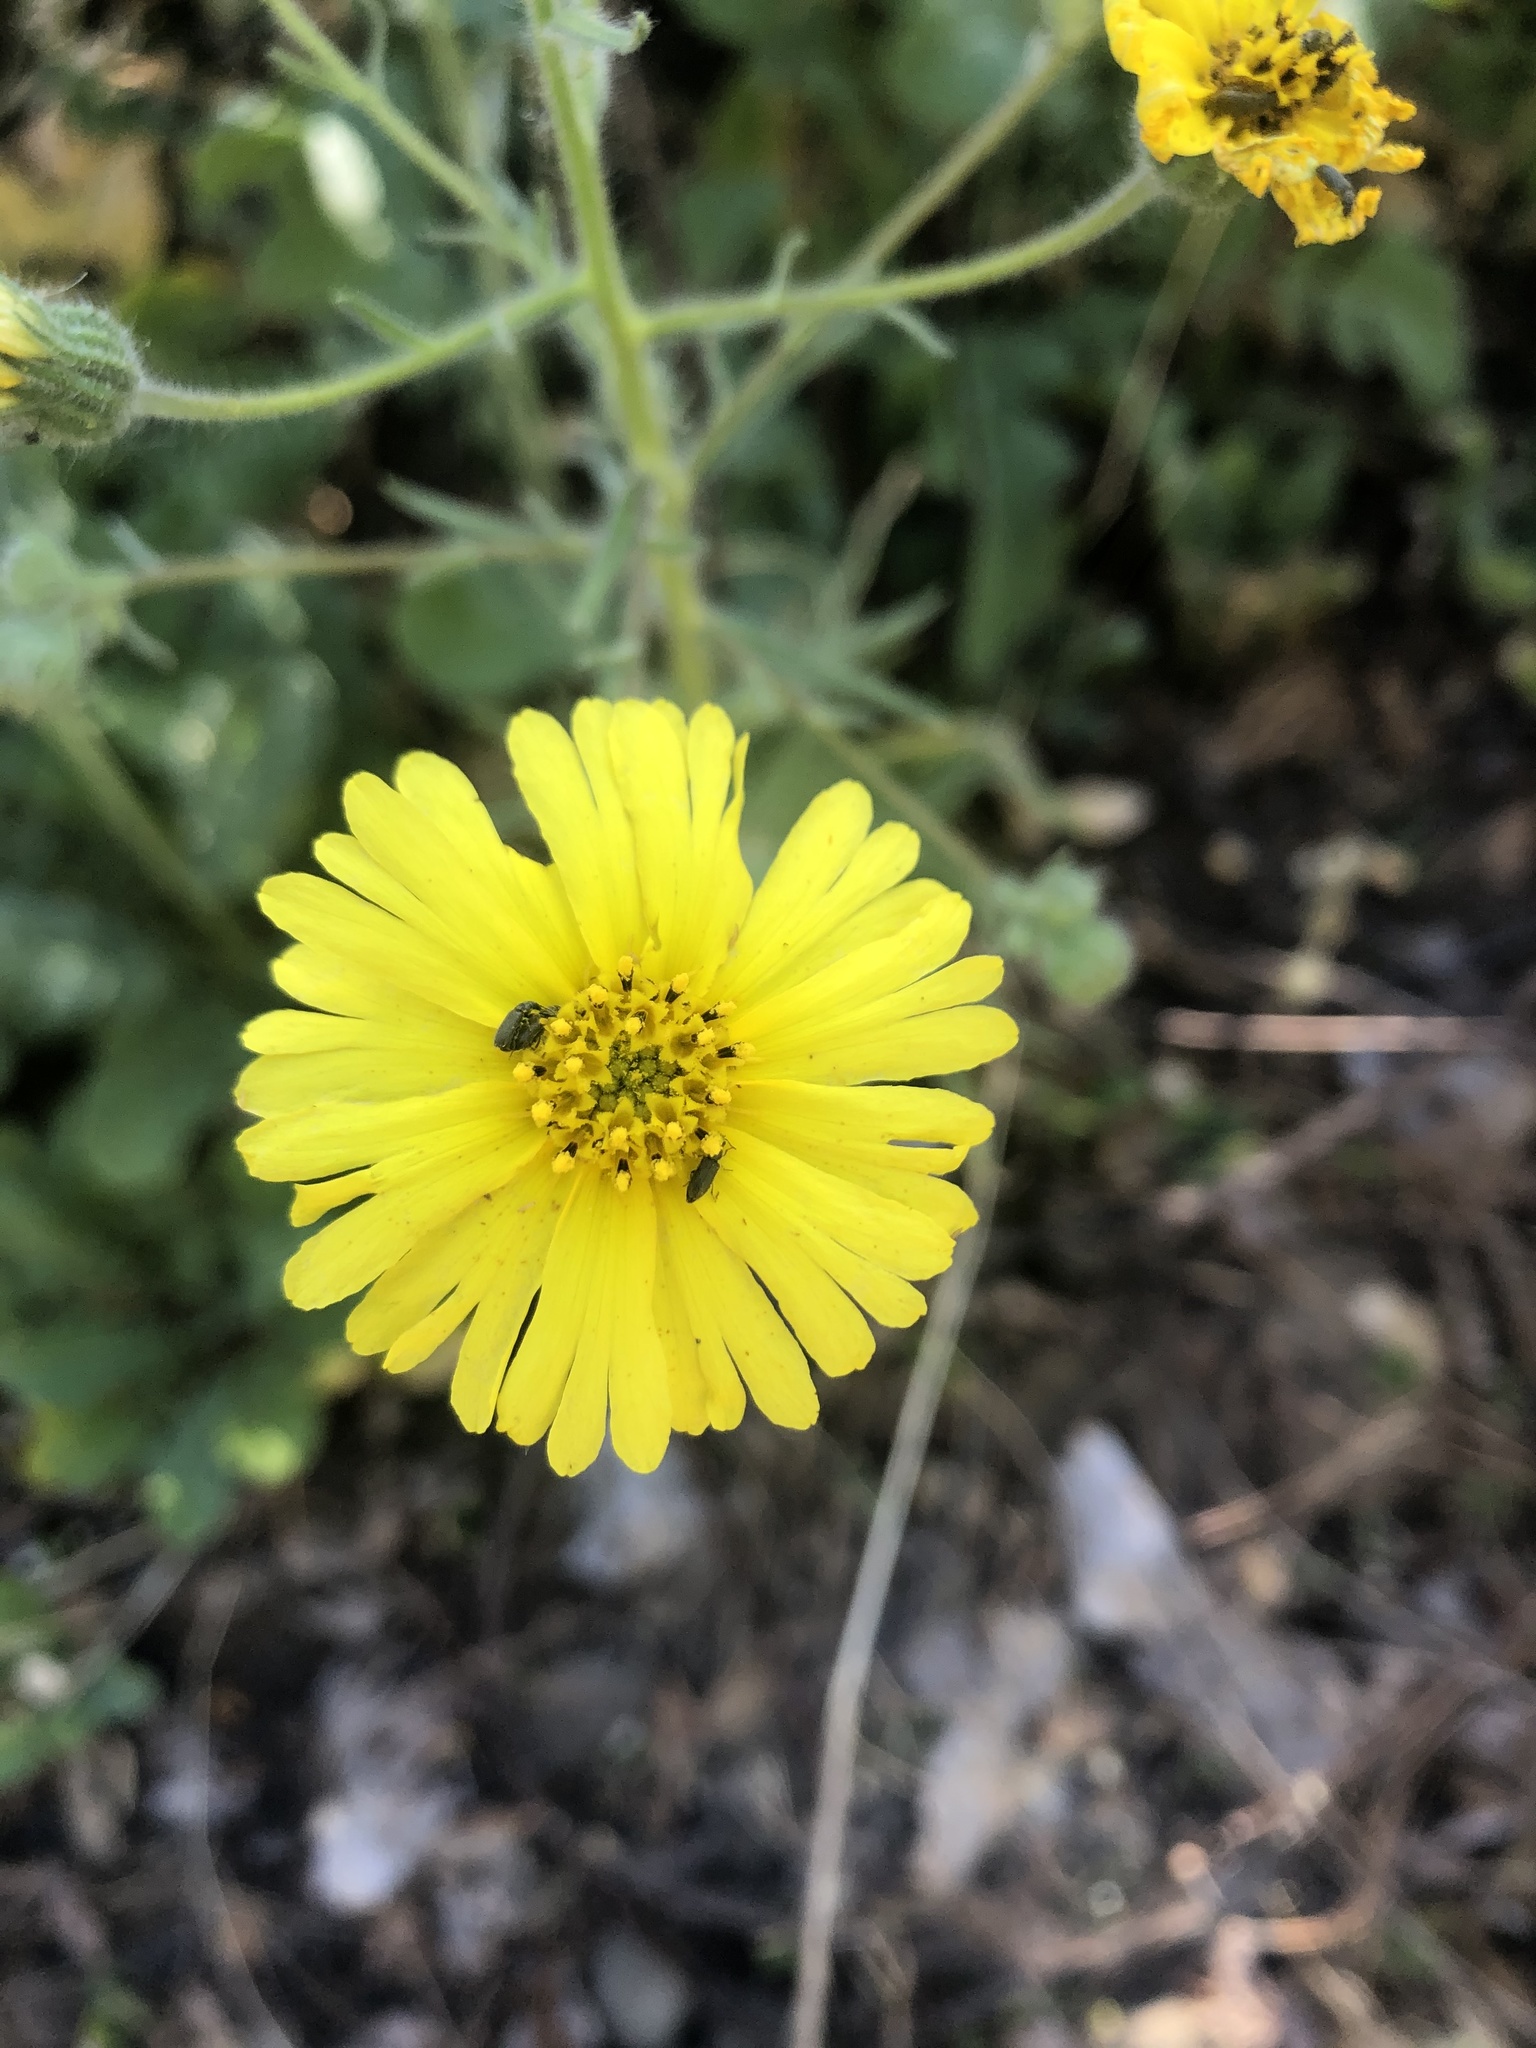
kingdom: Plantae
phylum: Tracheophyta
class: Magnoliopsida
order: Asterales
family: Asteraceae
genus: Madia
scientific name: Madia elegans
